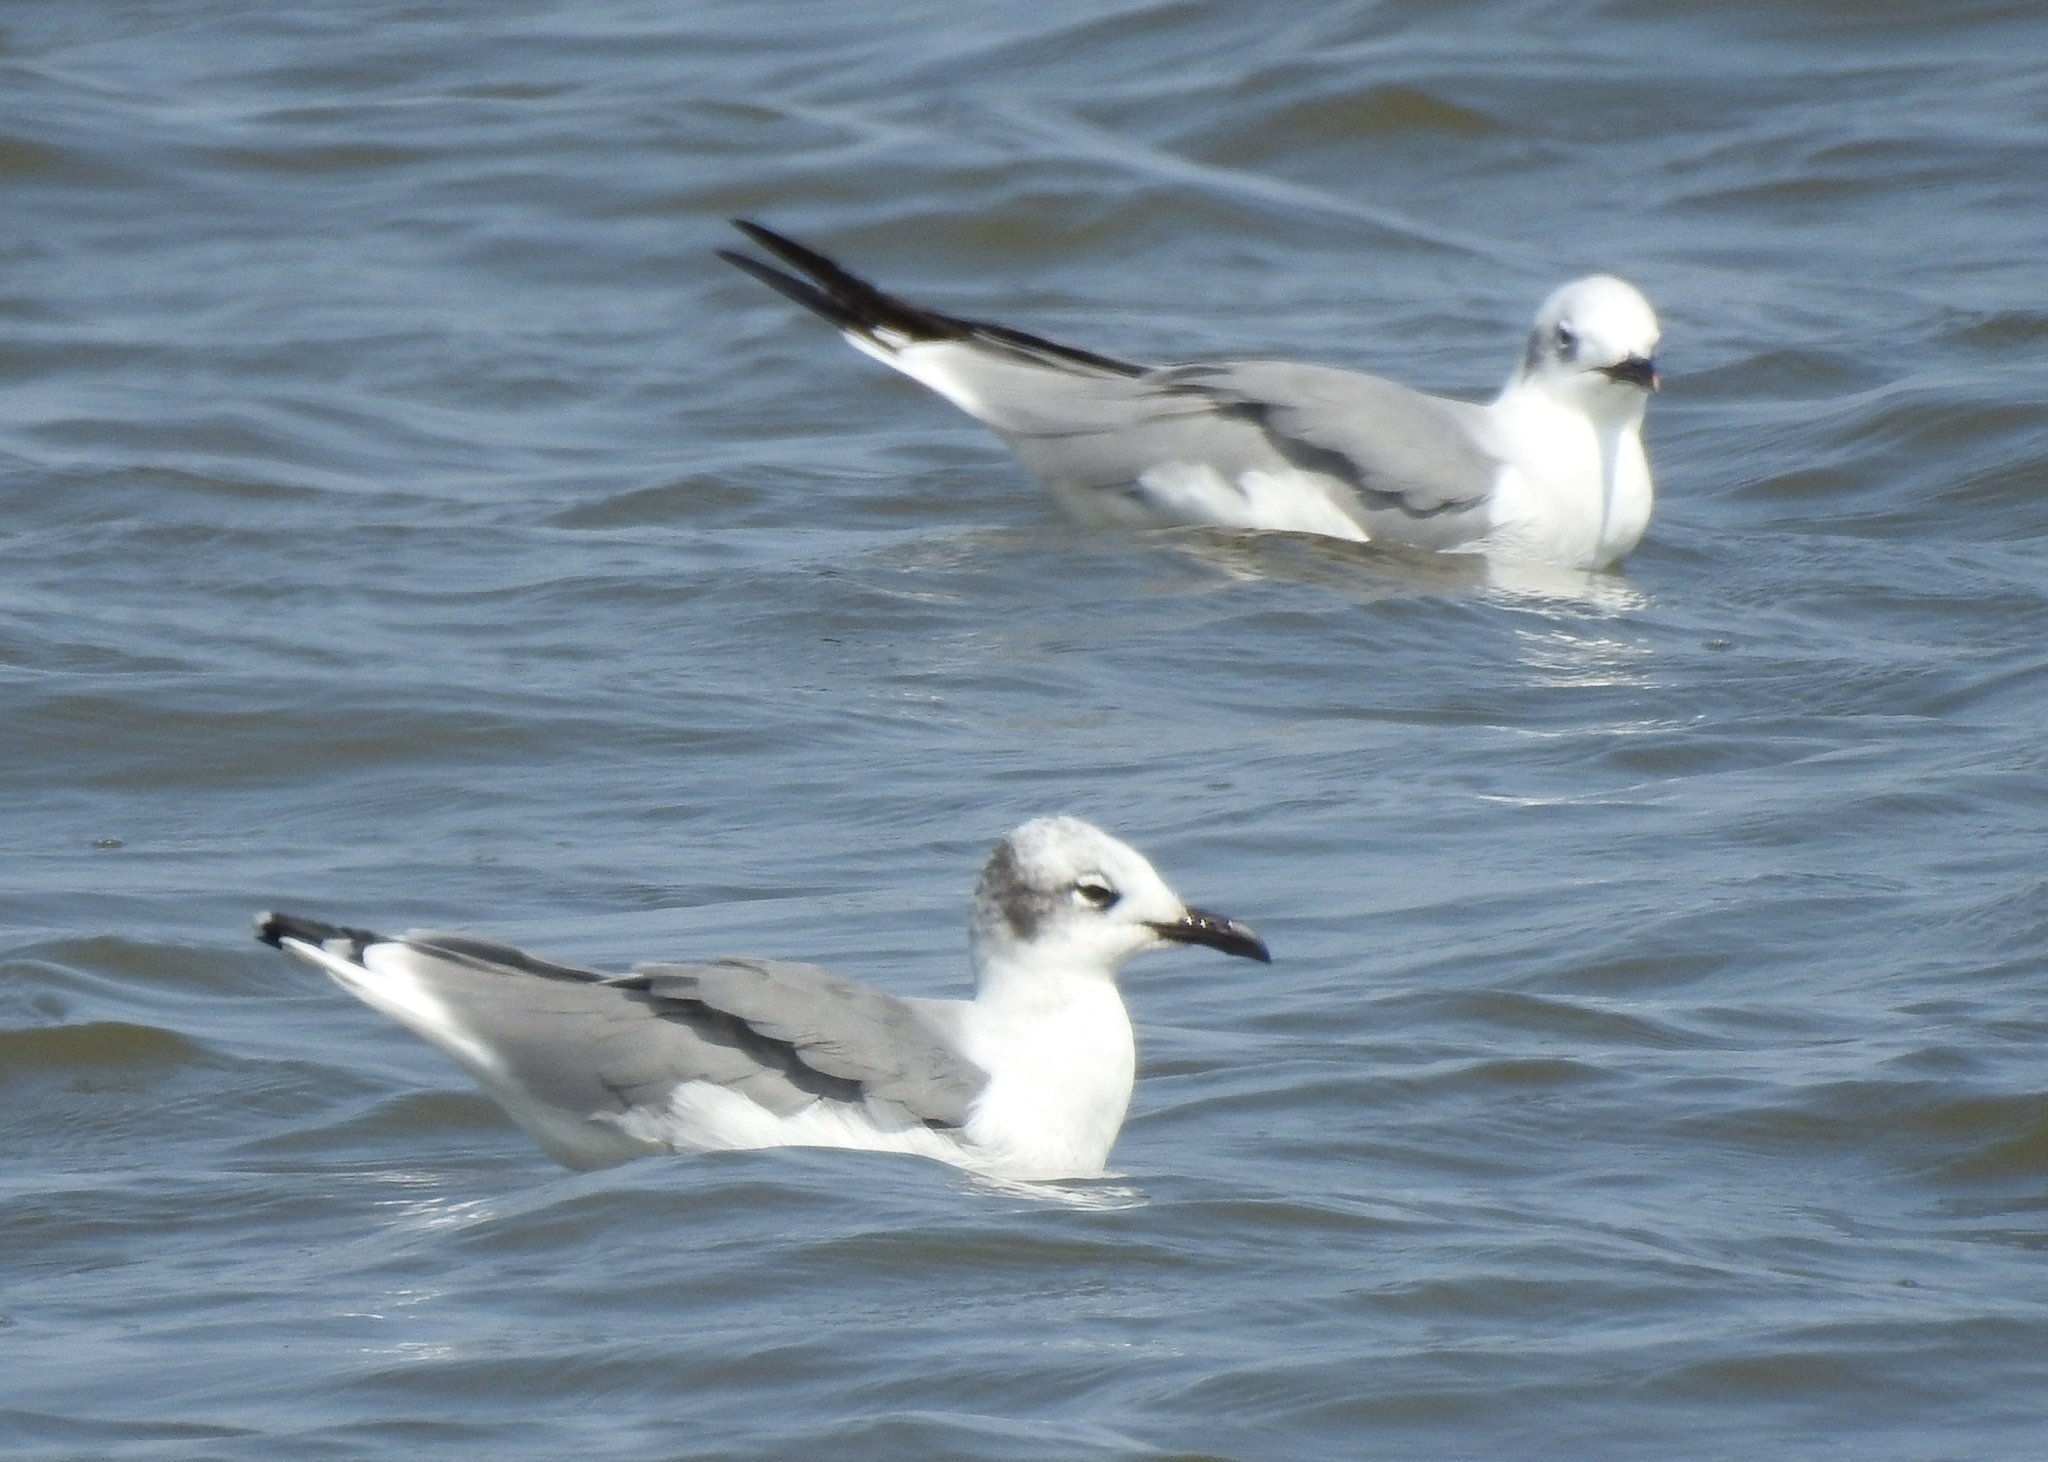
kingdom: Animalia
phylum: Chordata
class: Aves
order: Charadriiformes
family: Laridae
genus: Leucophaeus
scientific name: Leucophaeus atricilla
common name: Laughing gull
